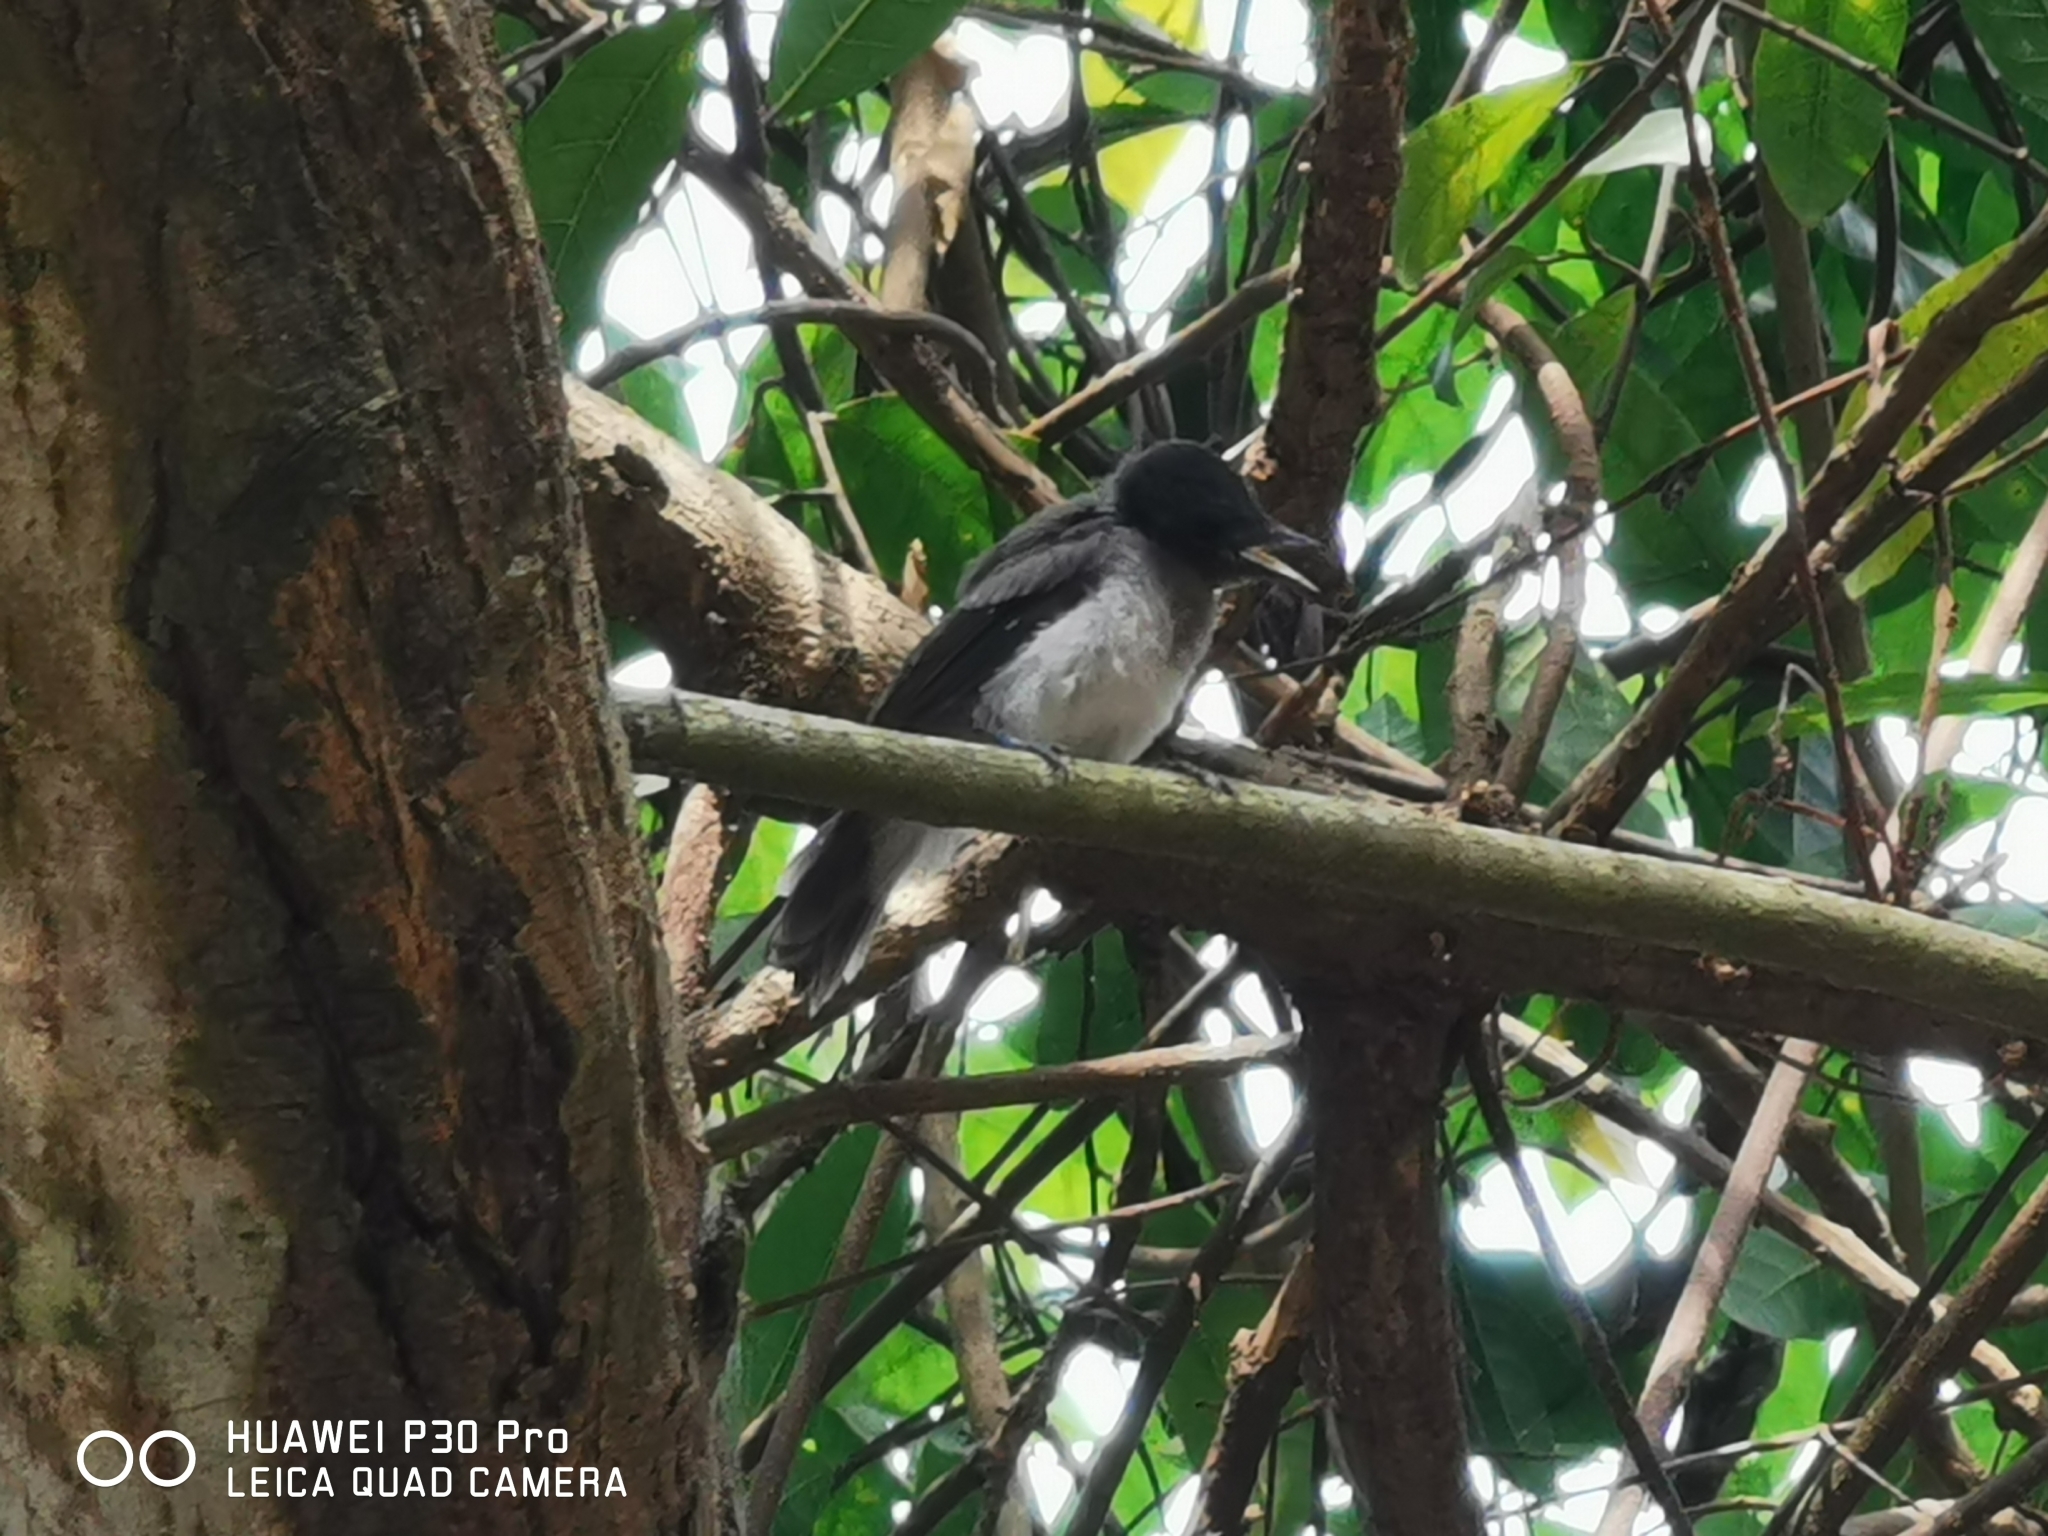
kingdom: Animalia
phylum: Chordata
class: Aves
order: Passeriformes
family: Monarchidae
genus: Hypothymis
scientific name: Hypothymis azurea
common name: Black-naped monarch
